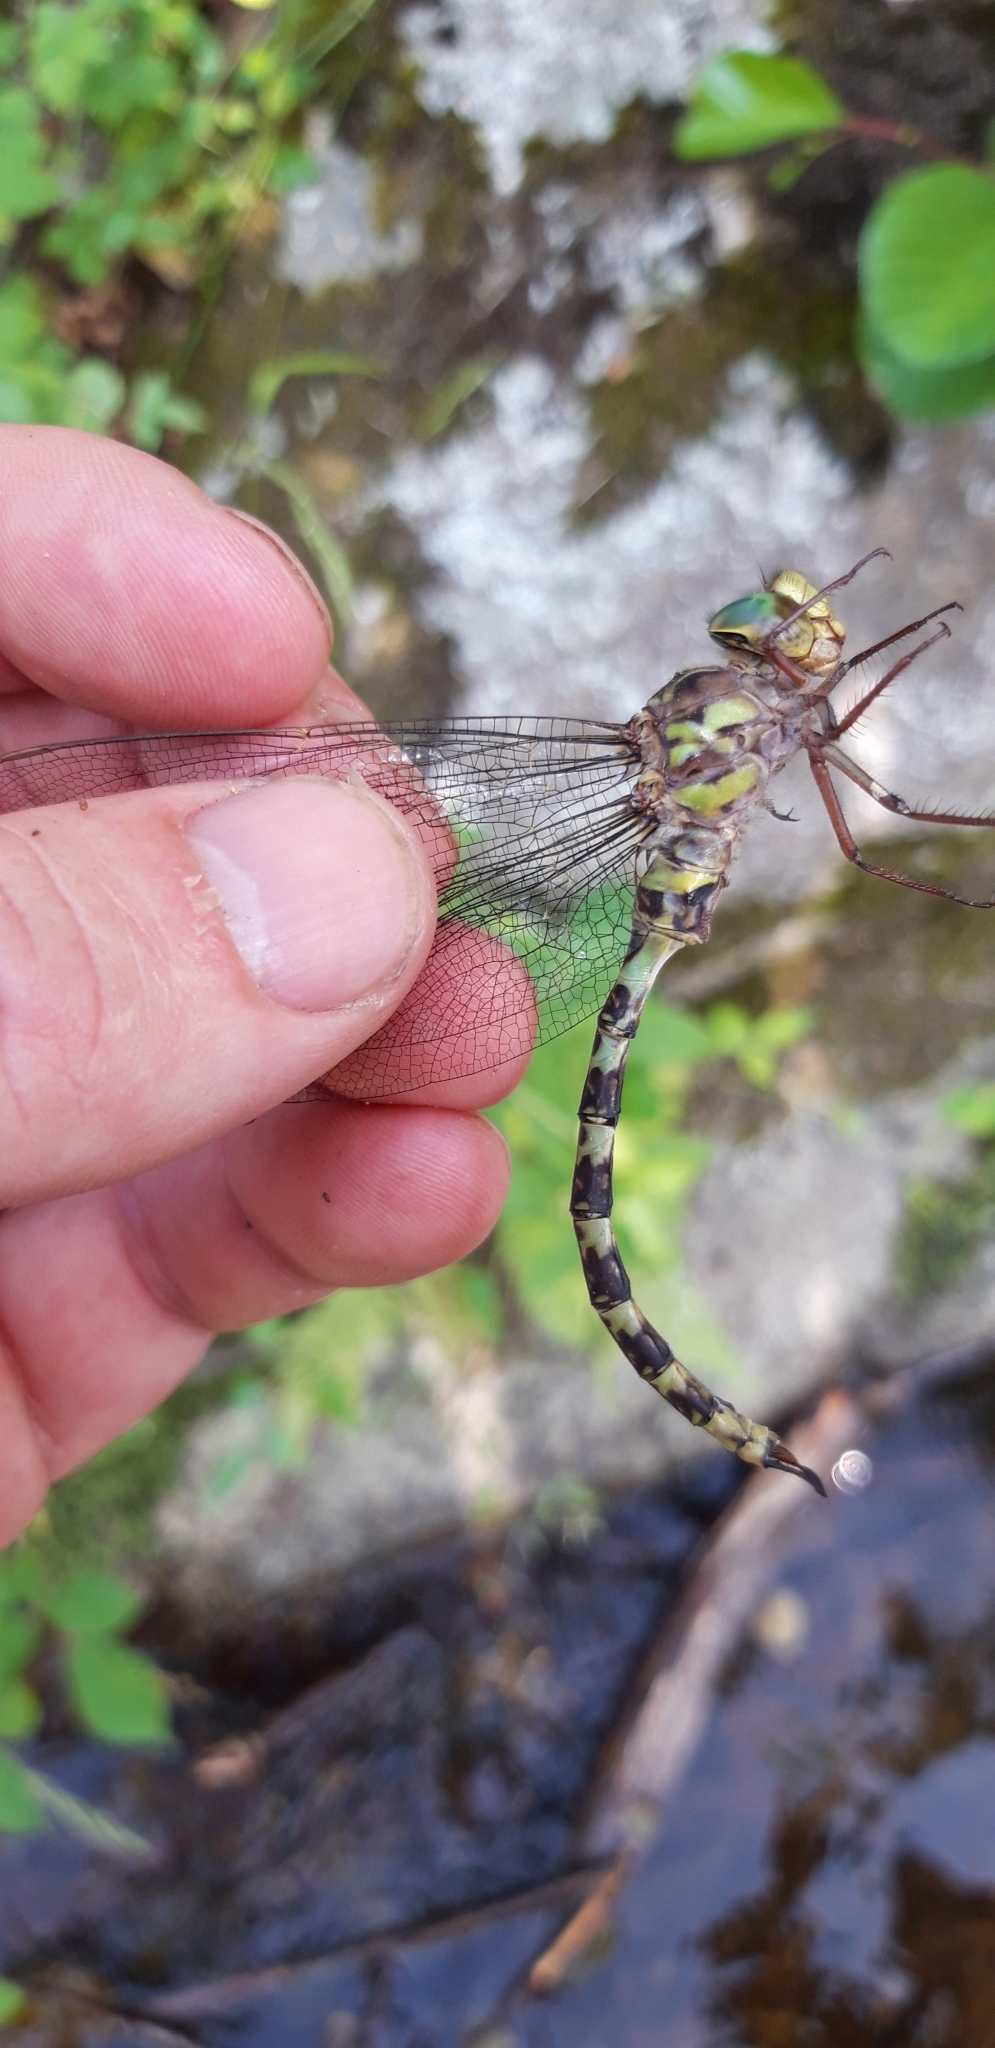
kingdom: Animalia
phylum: Arthropoda
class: Insecta
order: Odonata
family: Aeshnidae
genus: Boyeria
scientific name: Boyeria irene
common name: Western spectre
